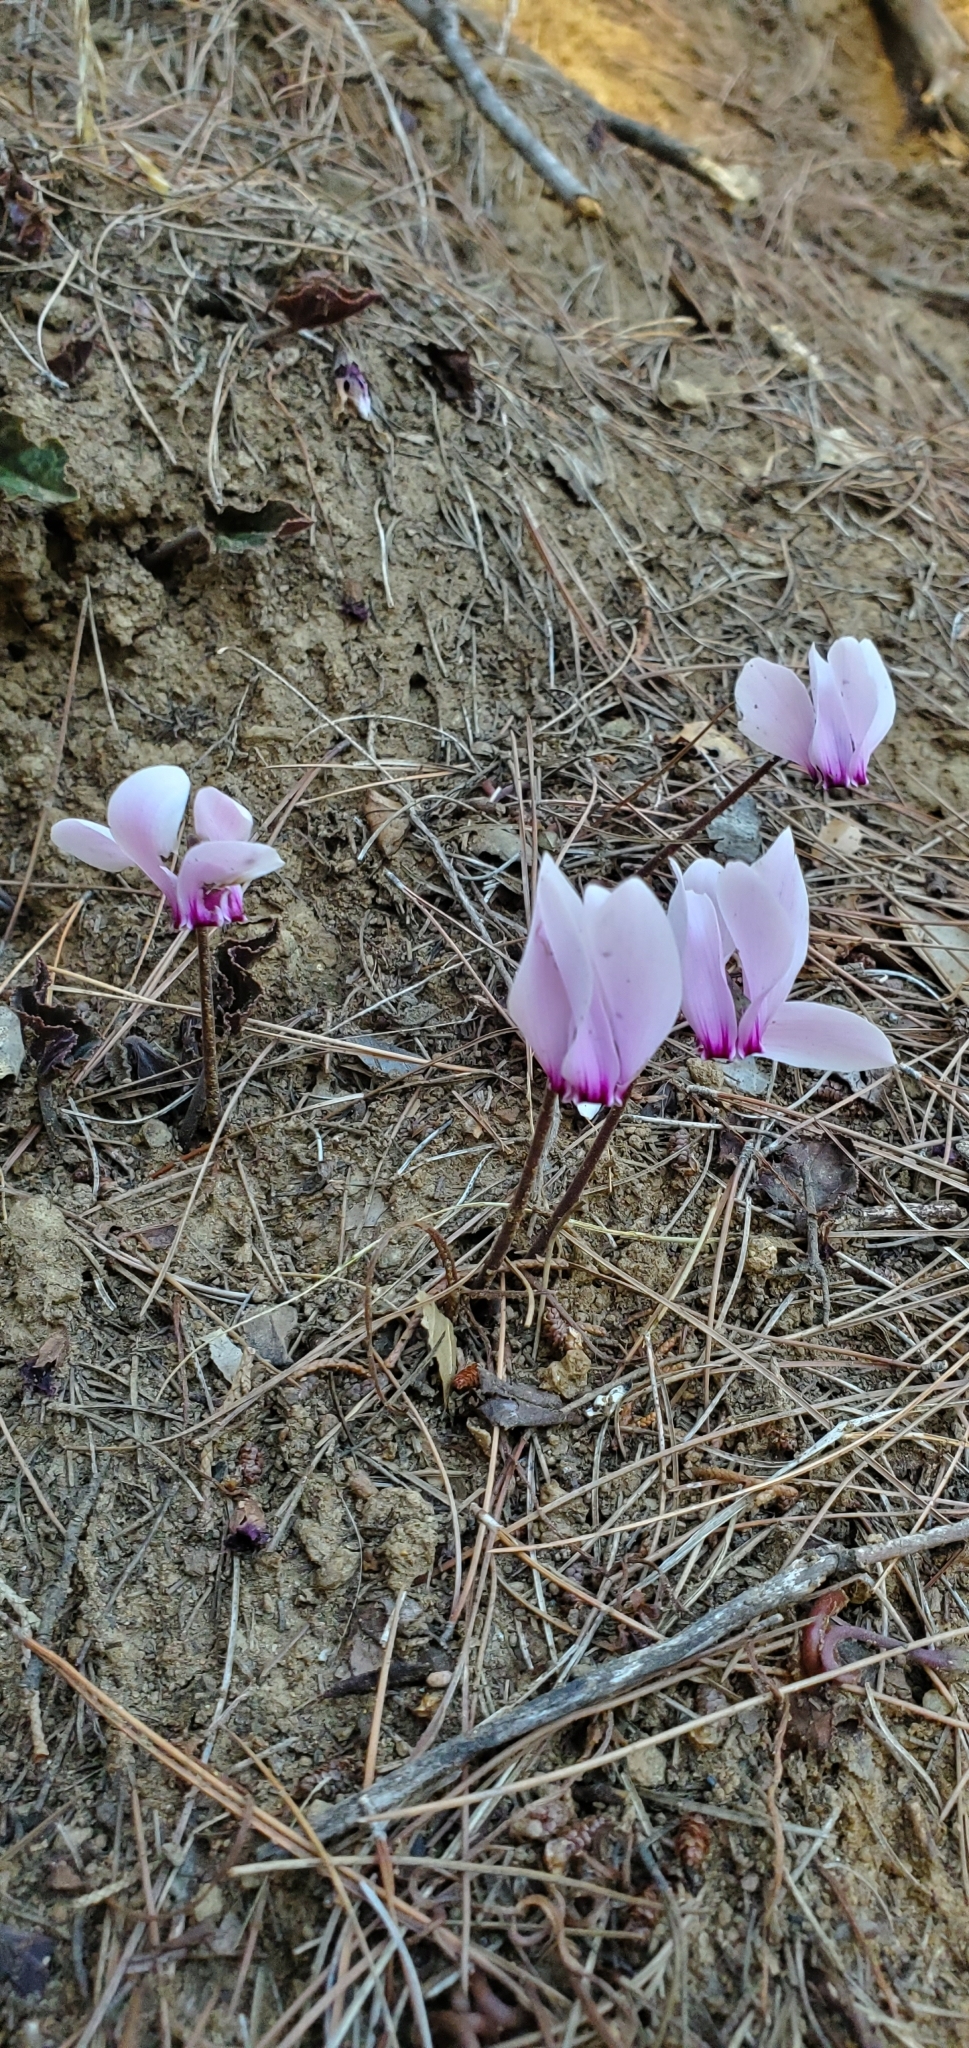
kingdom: Plantae
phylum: Tracheophyta
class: Magnoliopsida
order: Ericales
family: Primulaceae
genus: Cyclamen
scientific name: Cyclamen graecum
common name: Greek cyclamen
